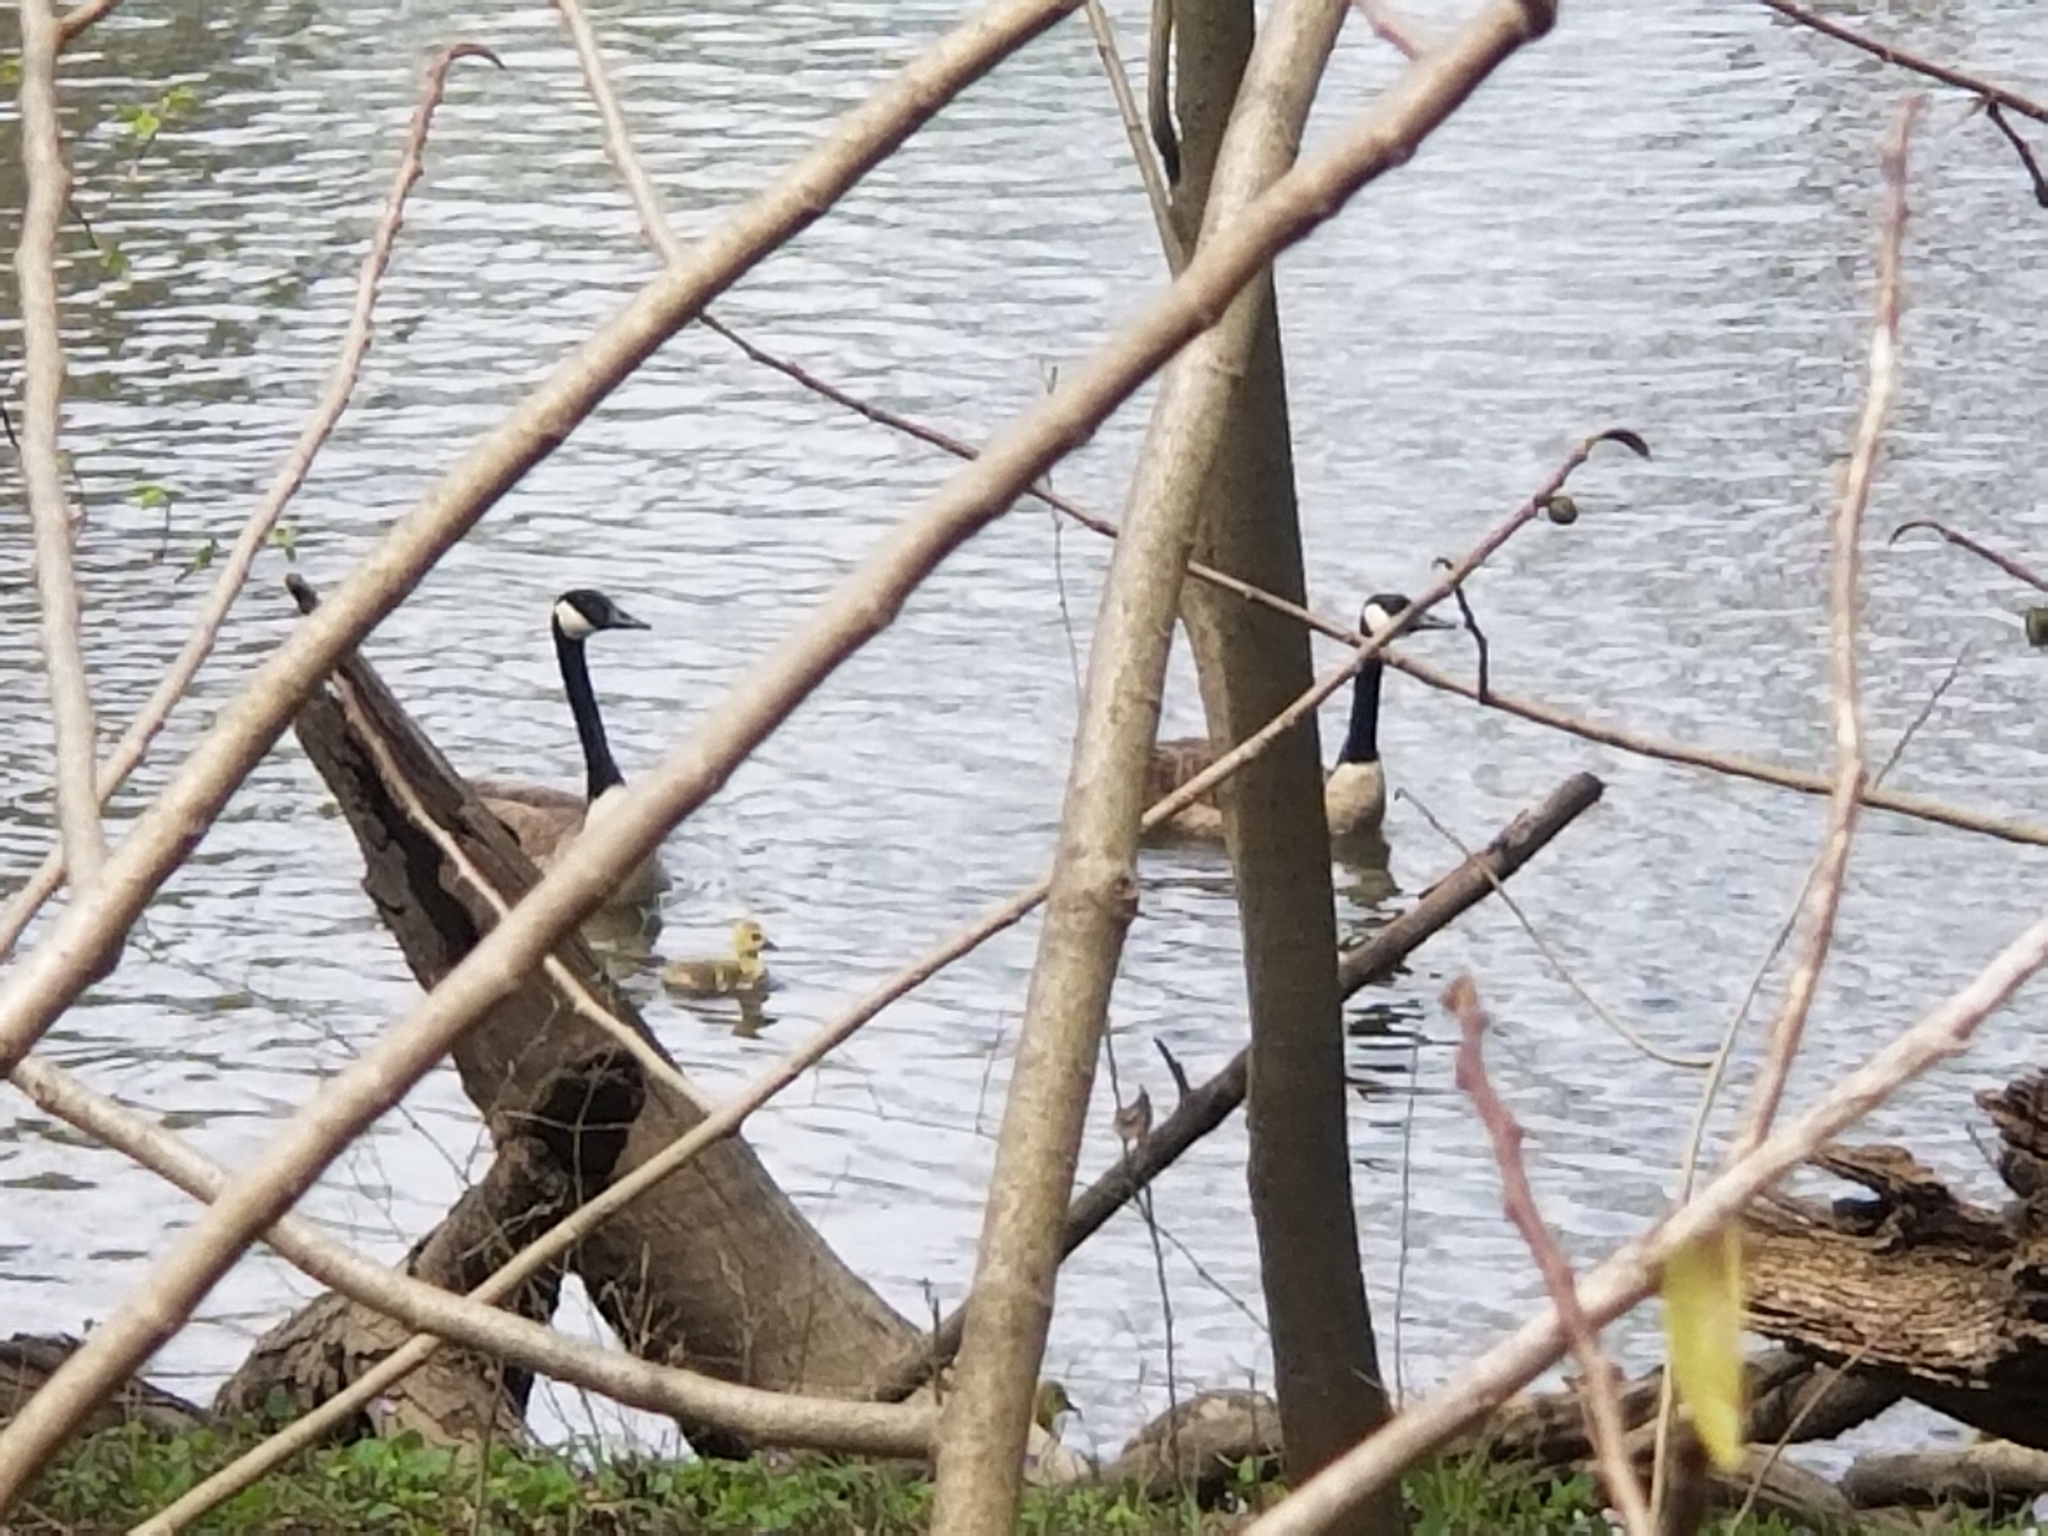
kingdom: Animalia
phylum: Chordata
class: Aves
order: Anseriformes
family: Anatidae
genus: Branta
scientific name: Branta canadensis
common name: Canada goose
